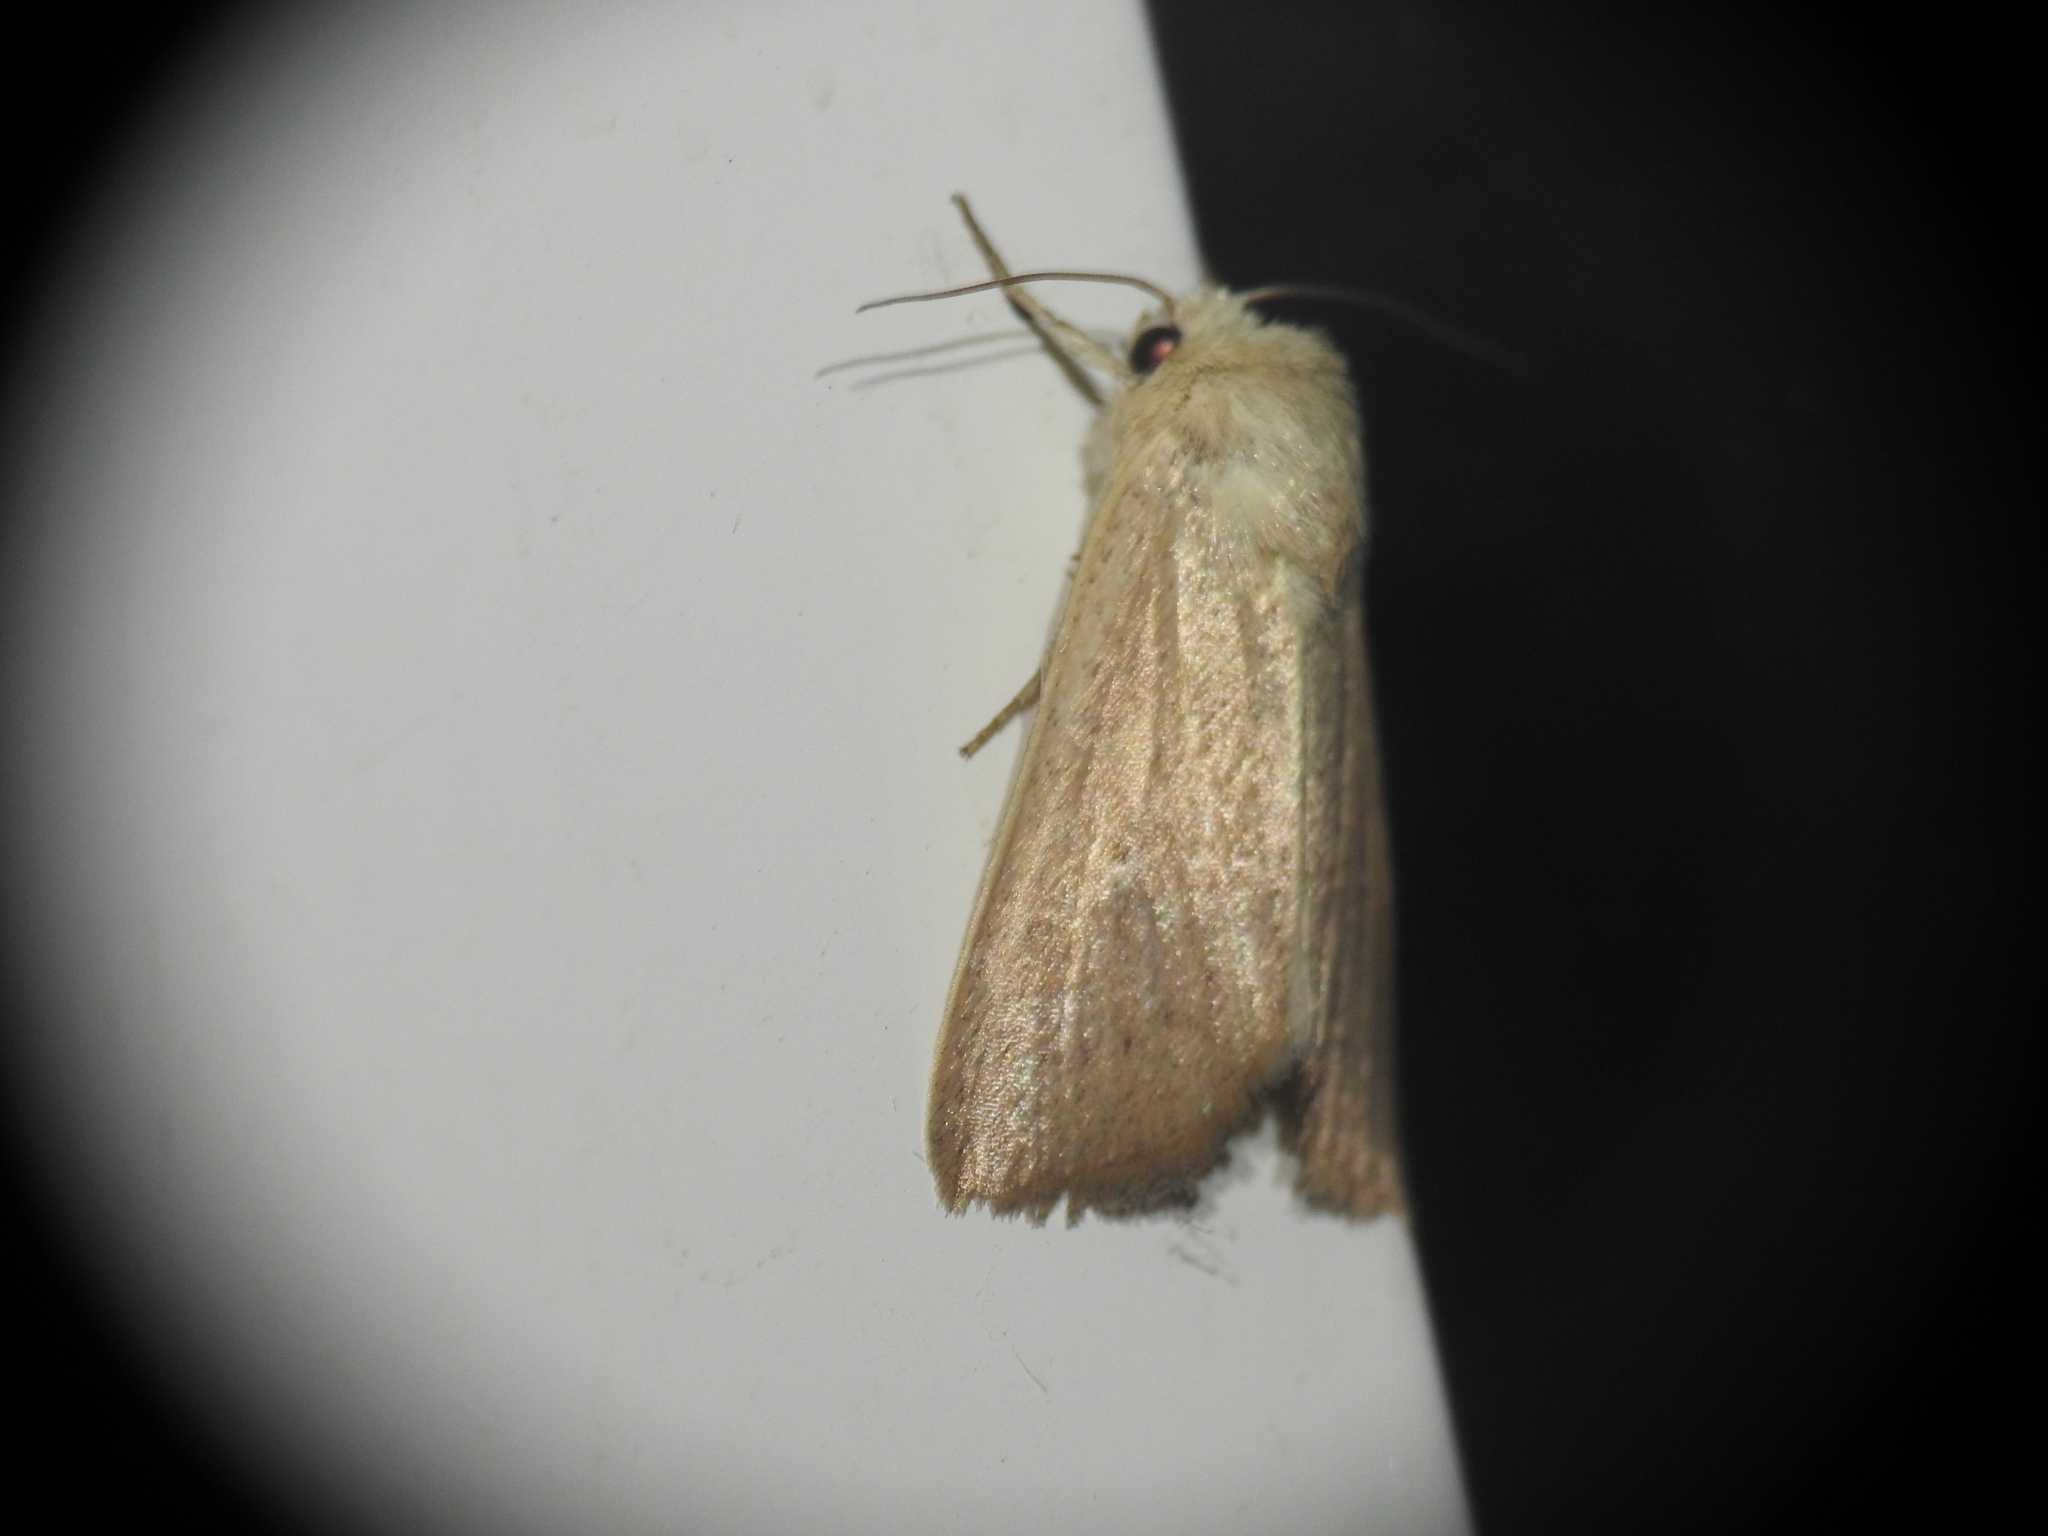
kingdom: Animalia
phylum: Arthropoda
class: Insecta
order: Lepidoptera
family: Noctuidae
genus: Mythimna
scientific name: Mythimna sicula
